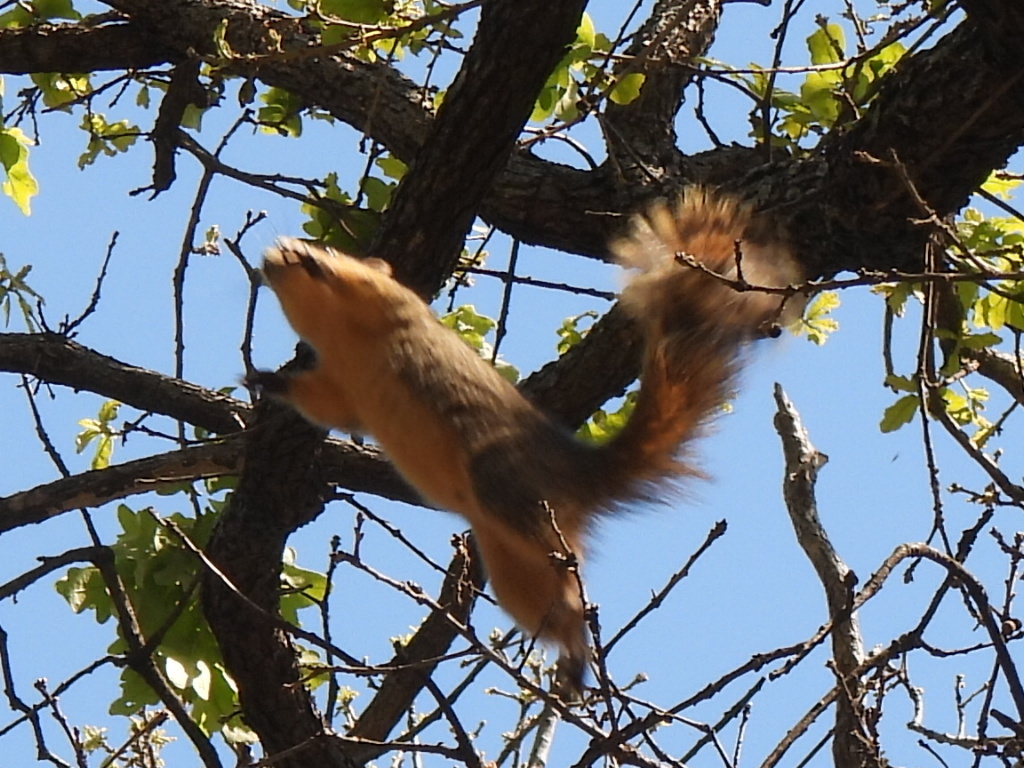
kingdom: Animalia
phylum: Chordata
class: Mammalia
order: Rodentia
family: Sciuridae
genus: Sciurus
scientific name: Sciurus niger
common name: Fox squirrel
